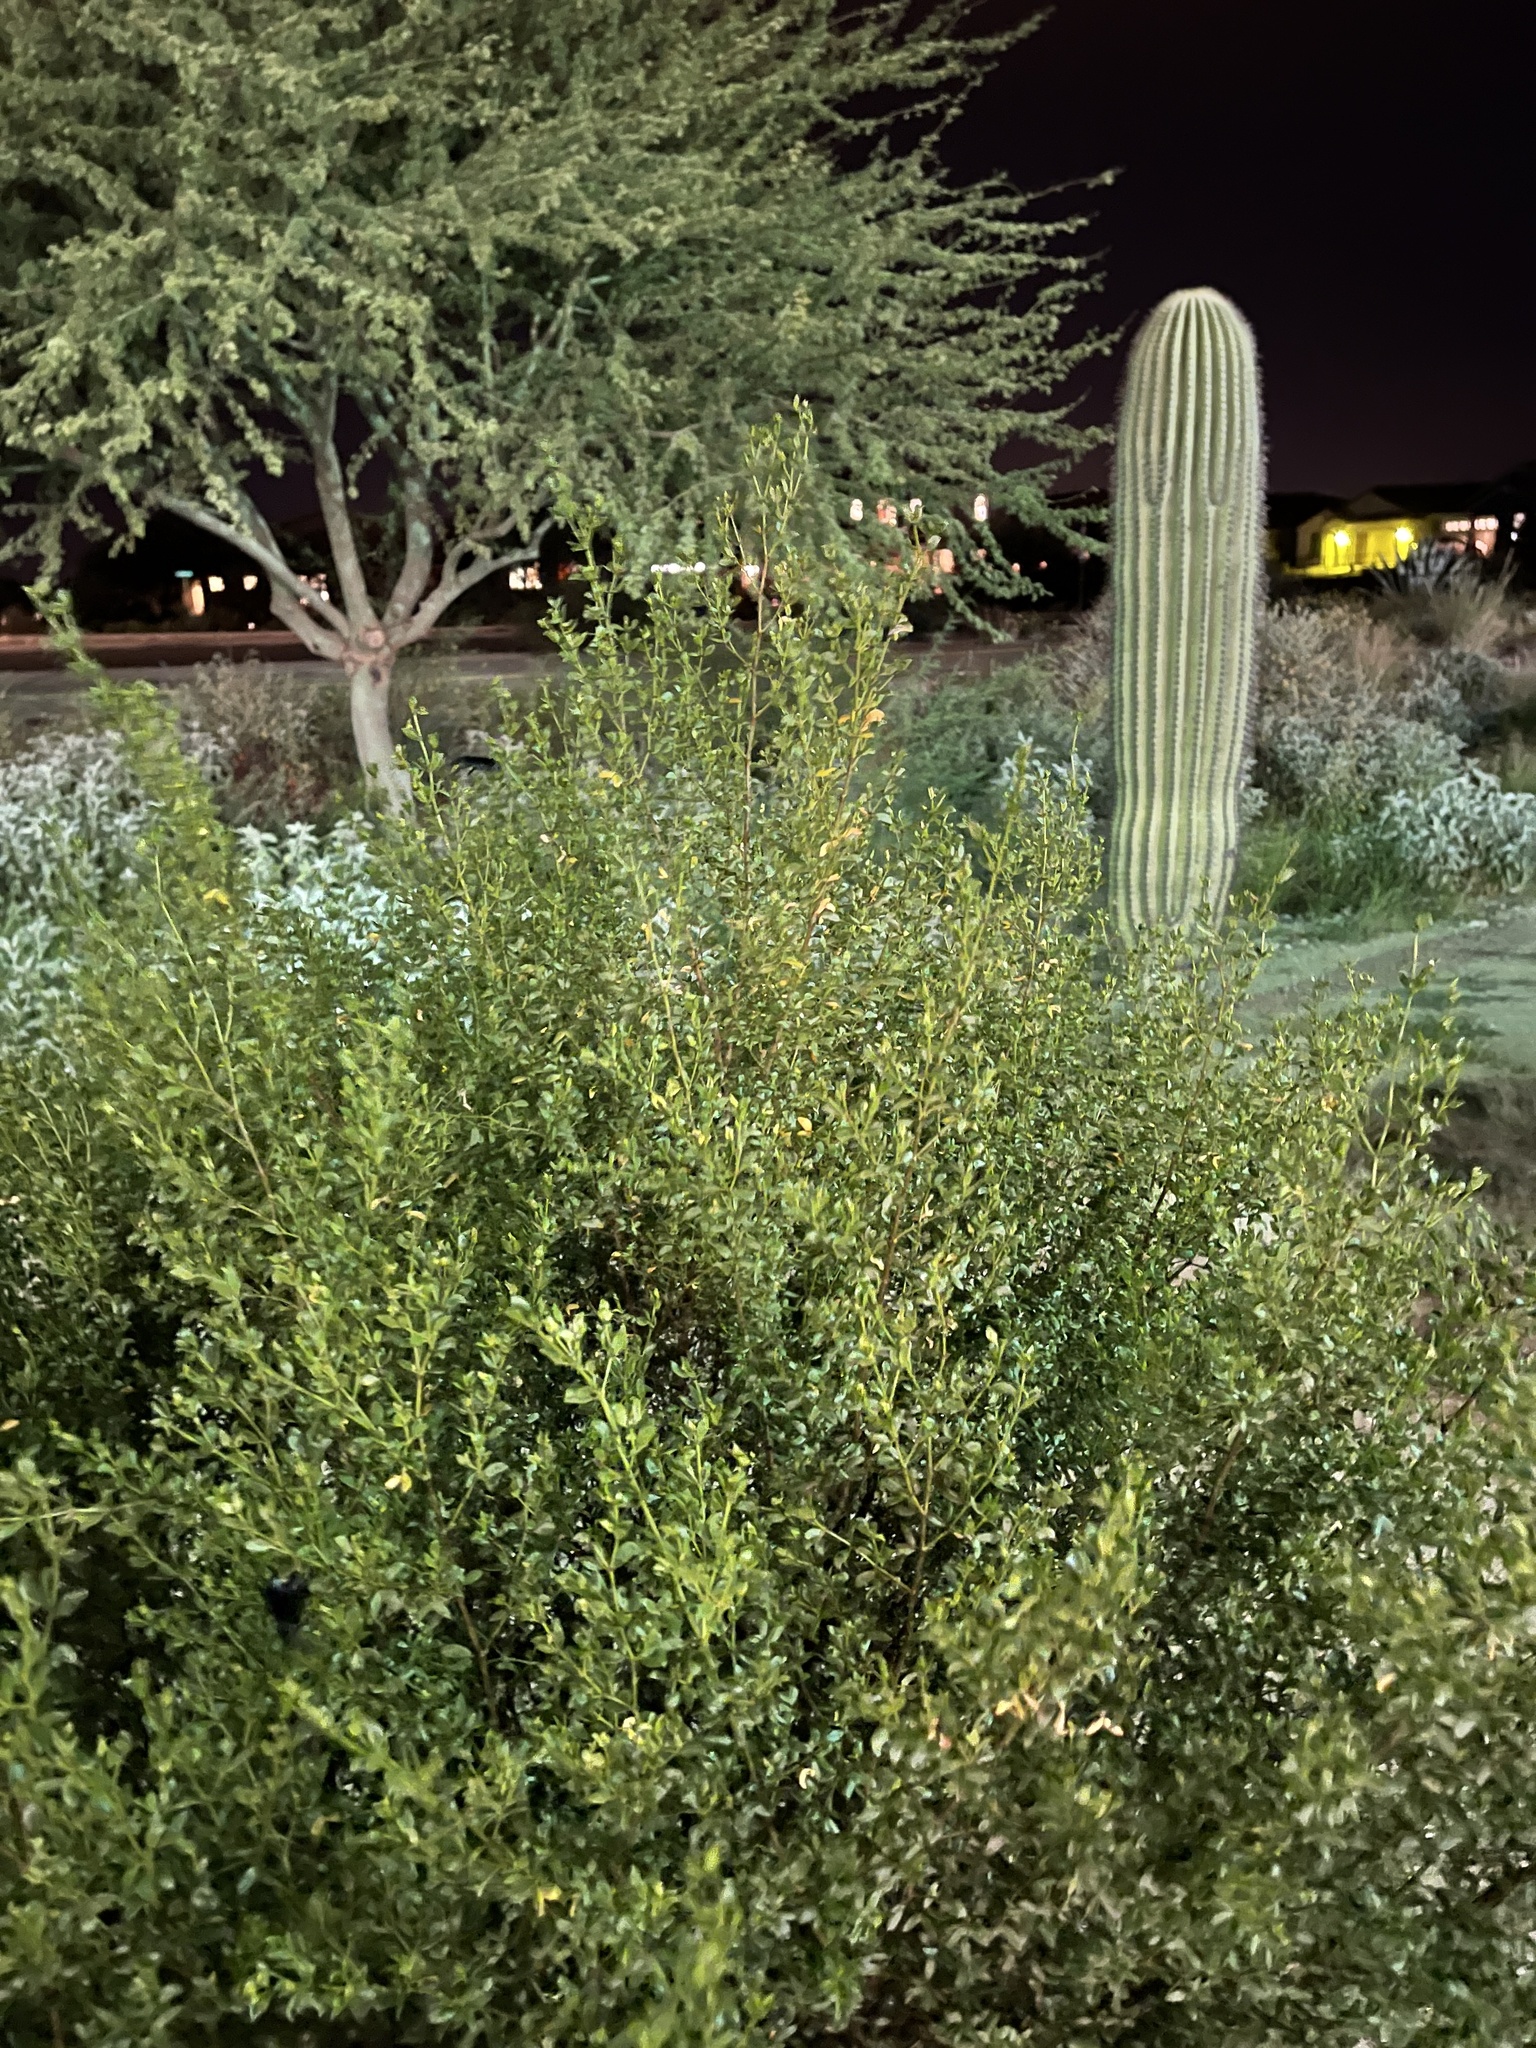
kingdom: Plantae
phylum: Tracheophyta
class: Magnoliopsida
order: Zygophyllales
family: Zygophyllaceae
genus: Larrea
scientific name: Larrea tridentata
